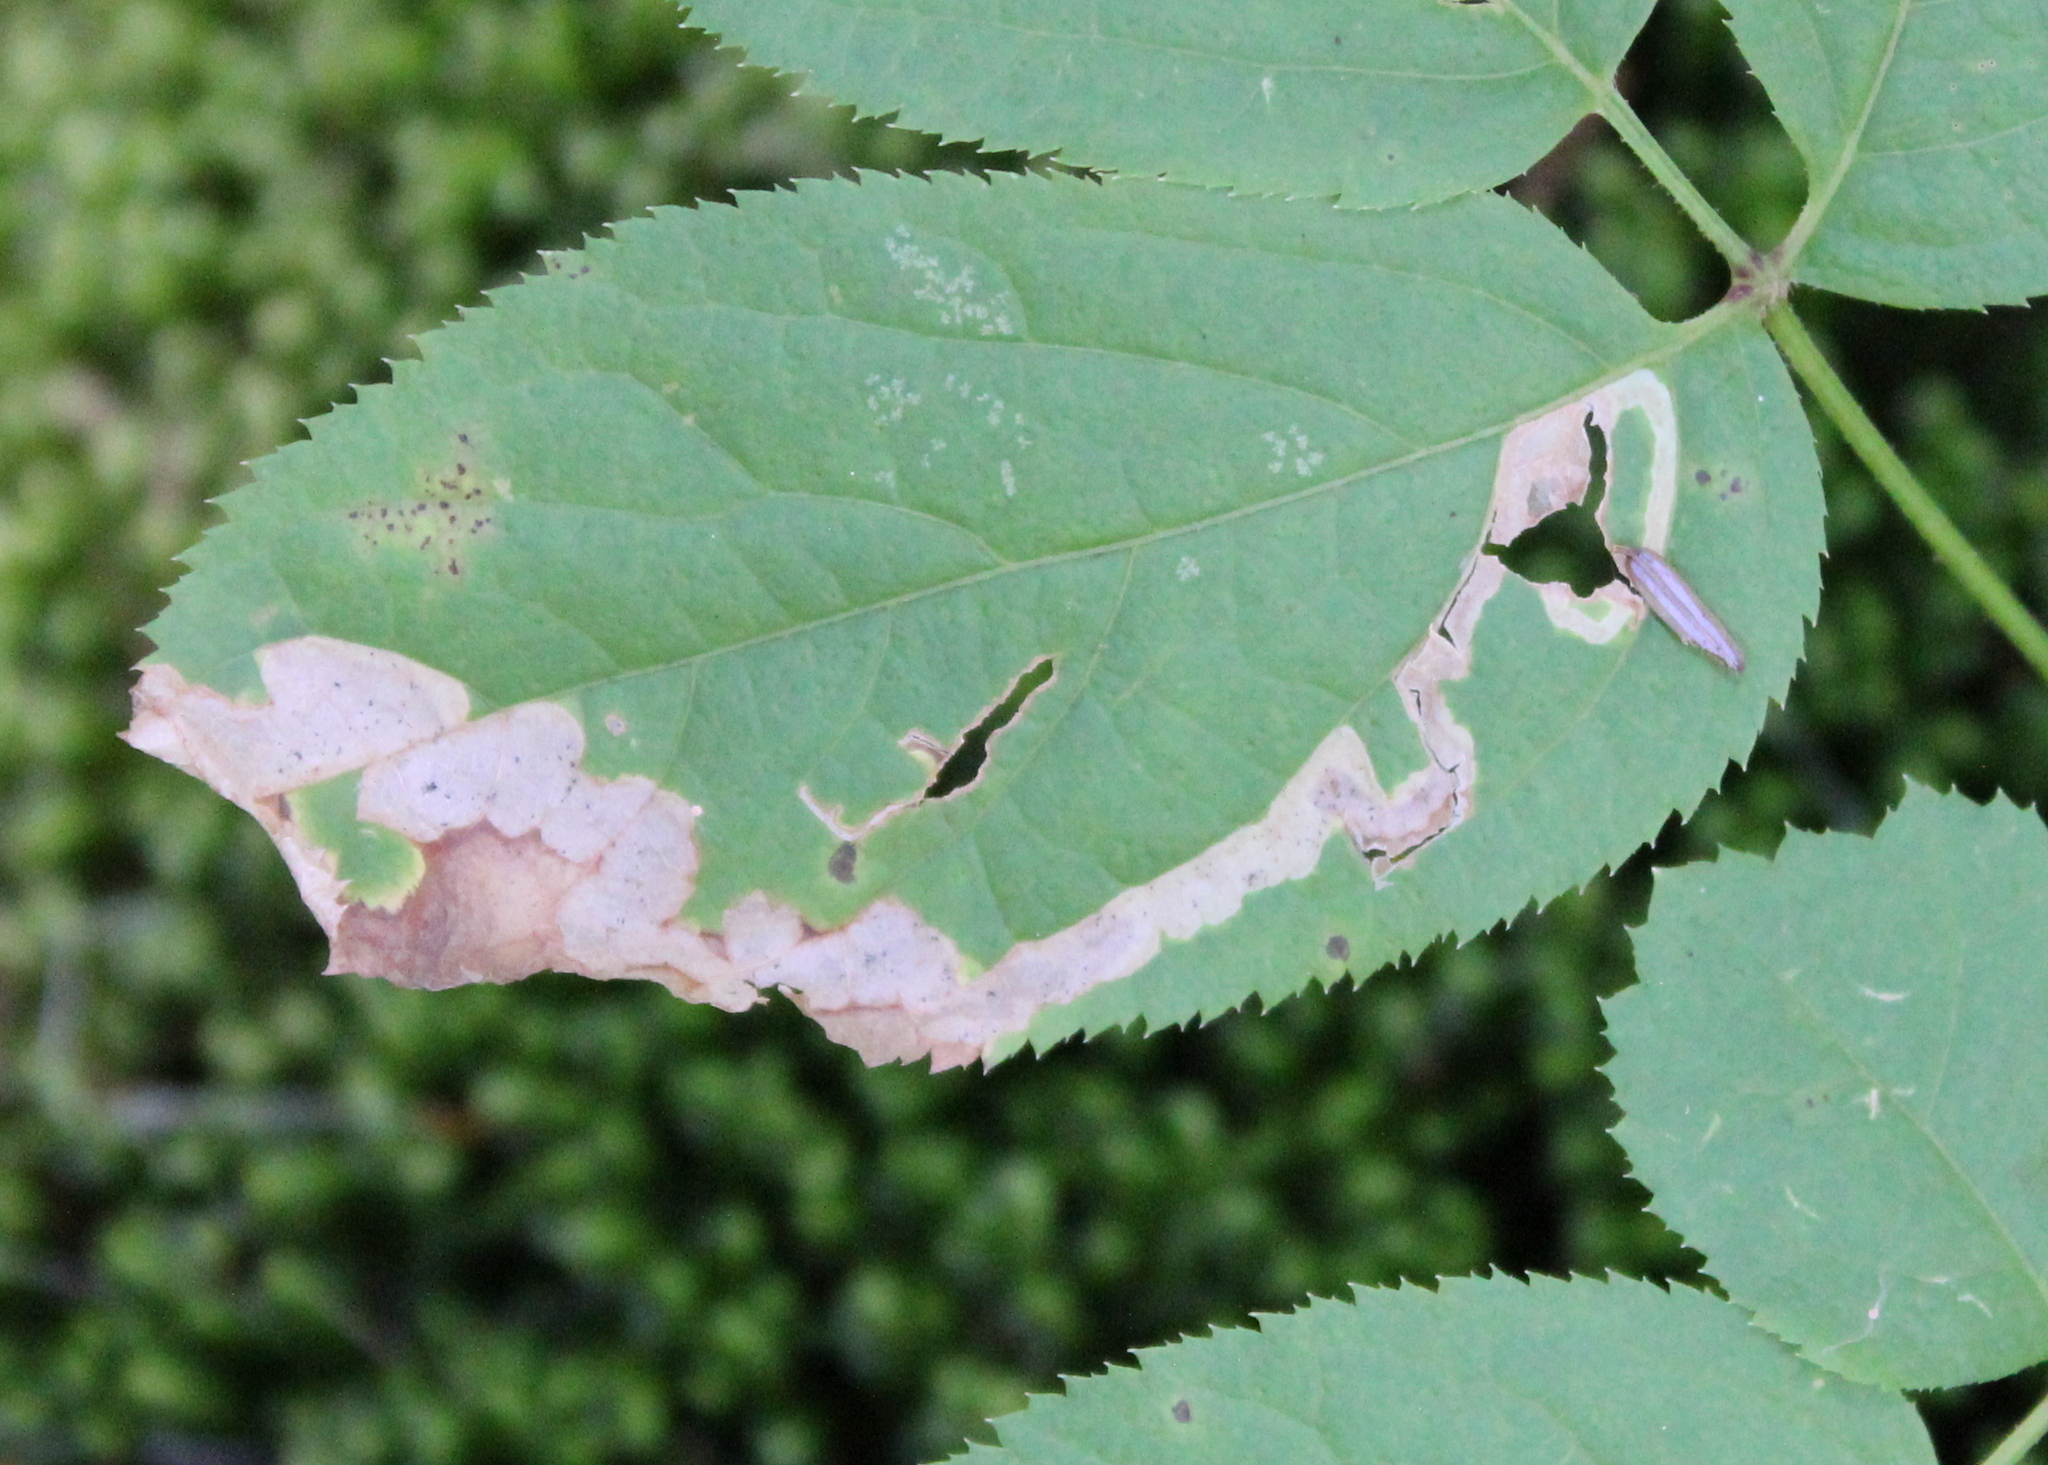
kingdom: Animalia
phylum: Arthropoda
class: Insecta
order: Diptera
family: Agromyzidae
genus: Phytomyza
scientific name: Phytomyza aralivora
